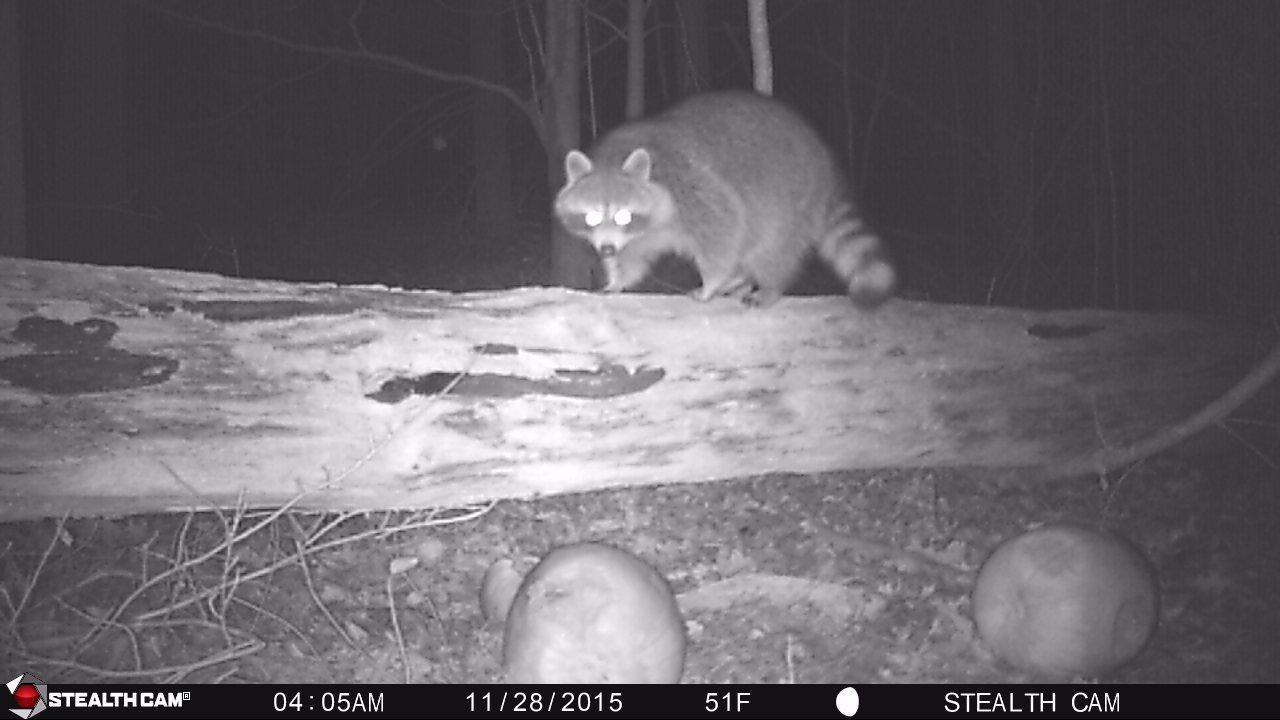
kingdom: Animalia
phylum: Chordata
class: Mammalia
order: Carnivora
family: Procyonidae
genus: Procyon
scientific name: Procyon lotor
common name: Raccoon
